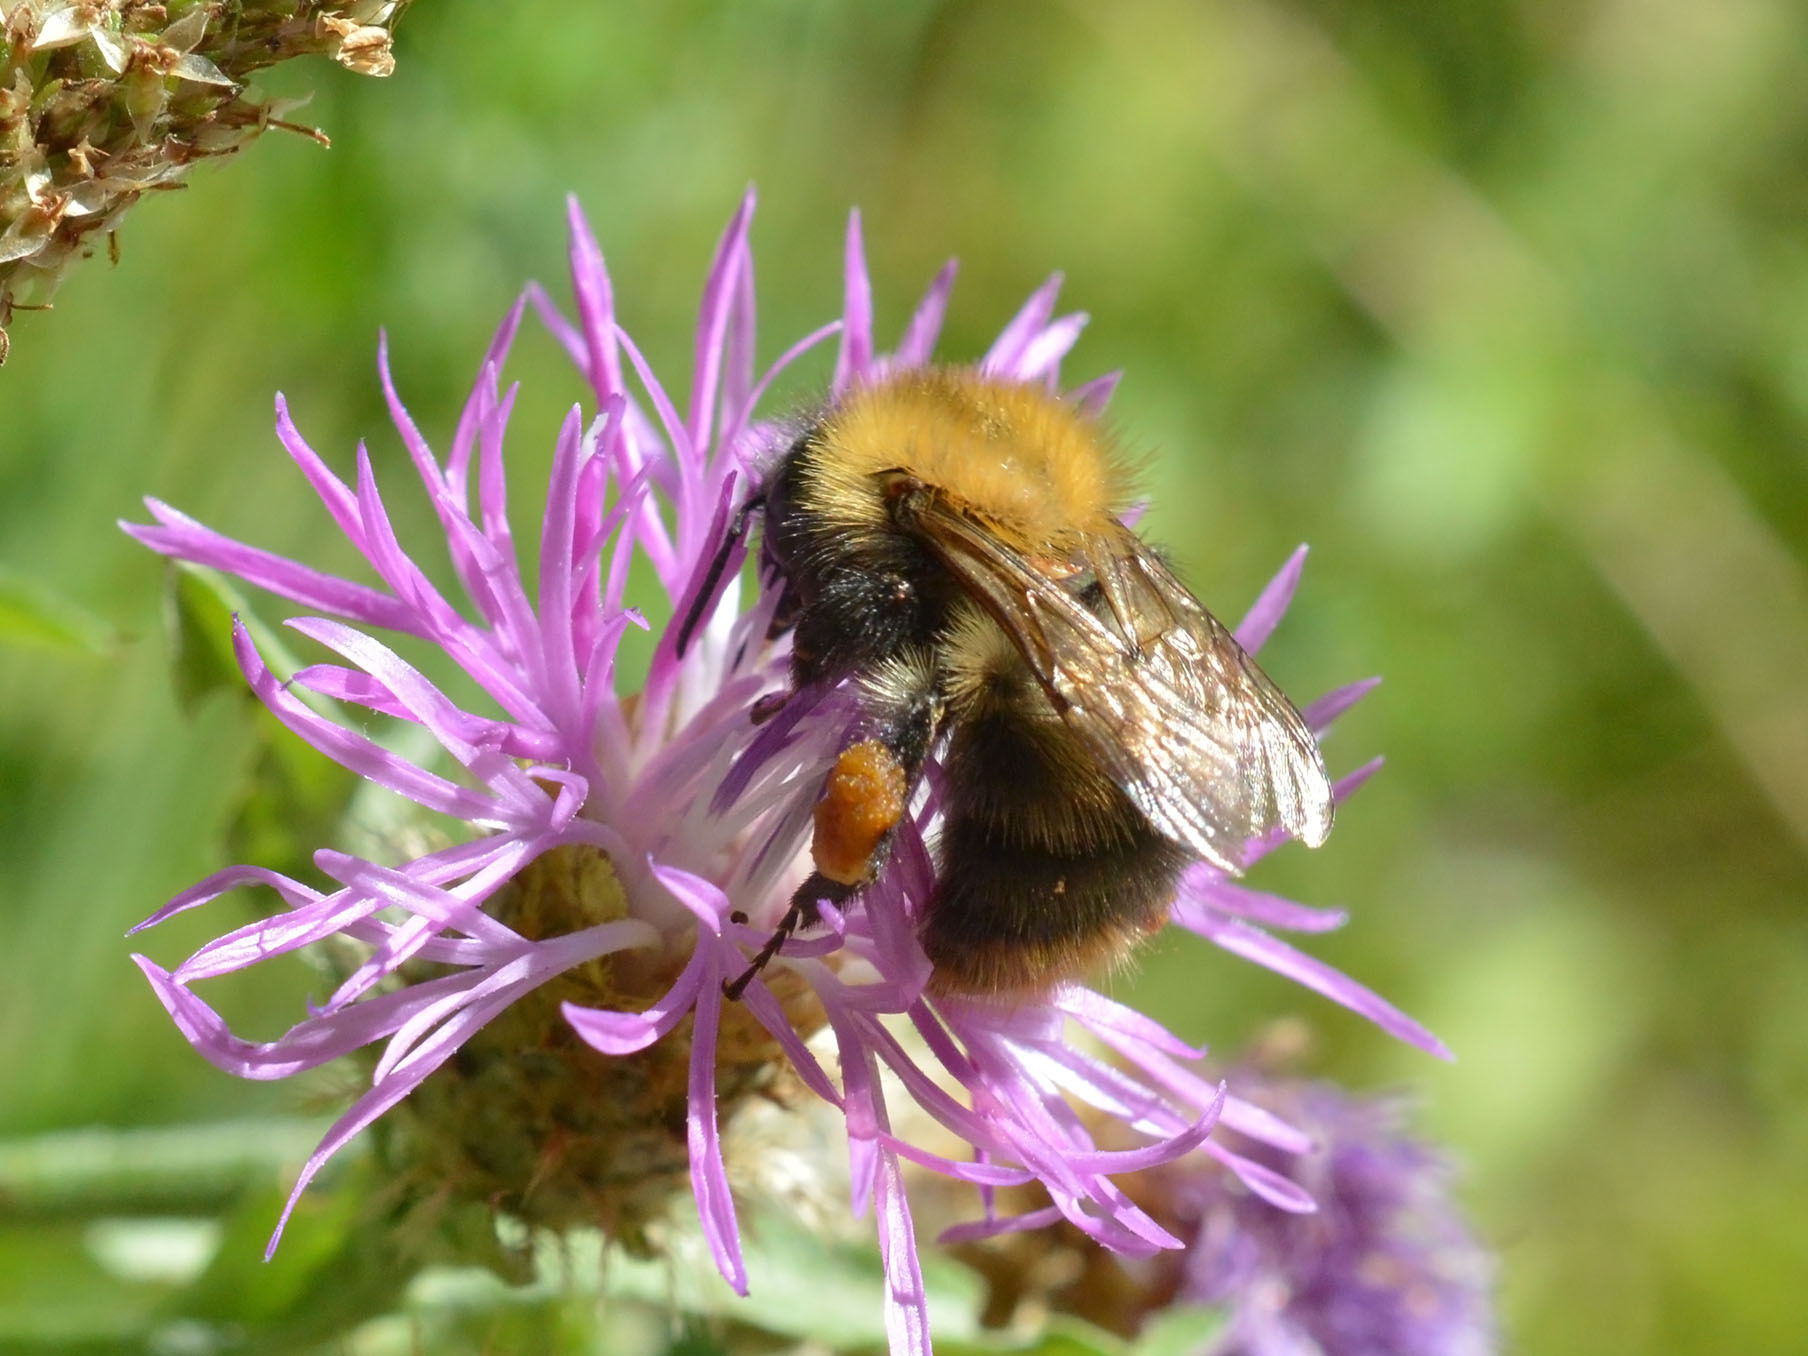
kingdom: Animalia
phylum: Arthropoda
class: Insecta
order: Hymenoptera
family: Apidae
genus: Bombus
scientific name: Bombus pascuorum
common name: Common carder bee
